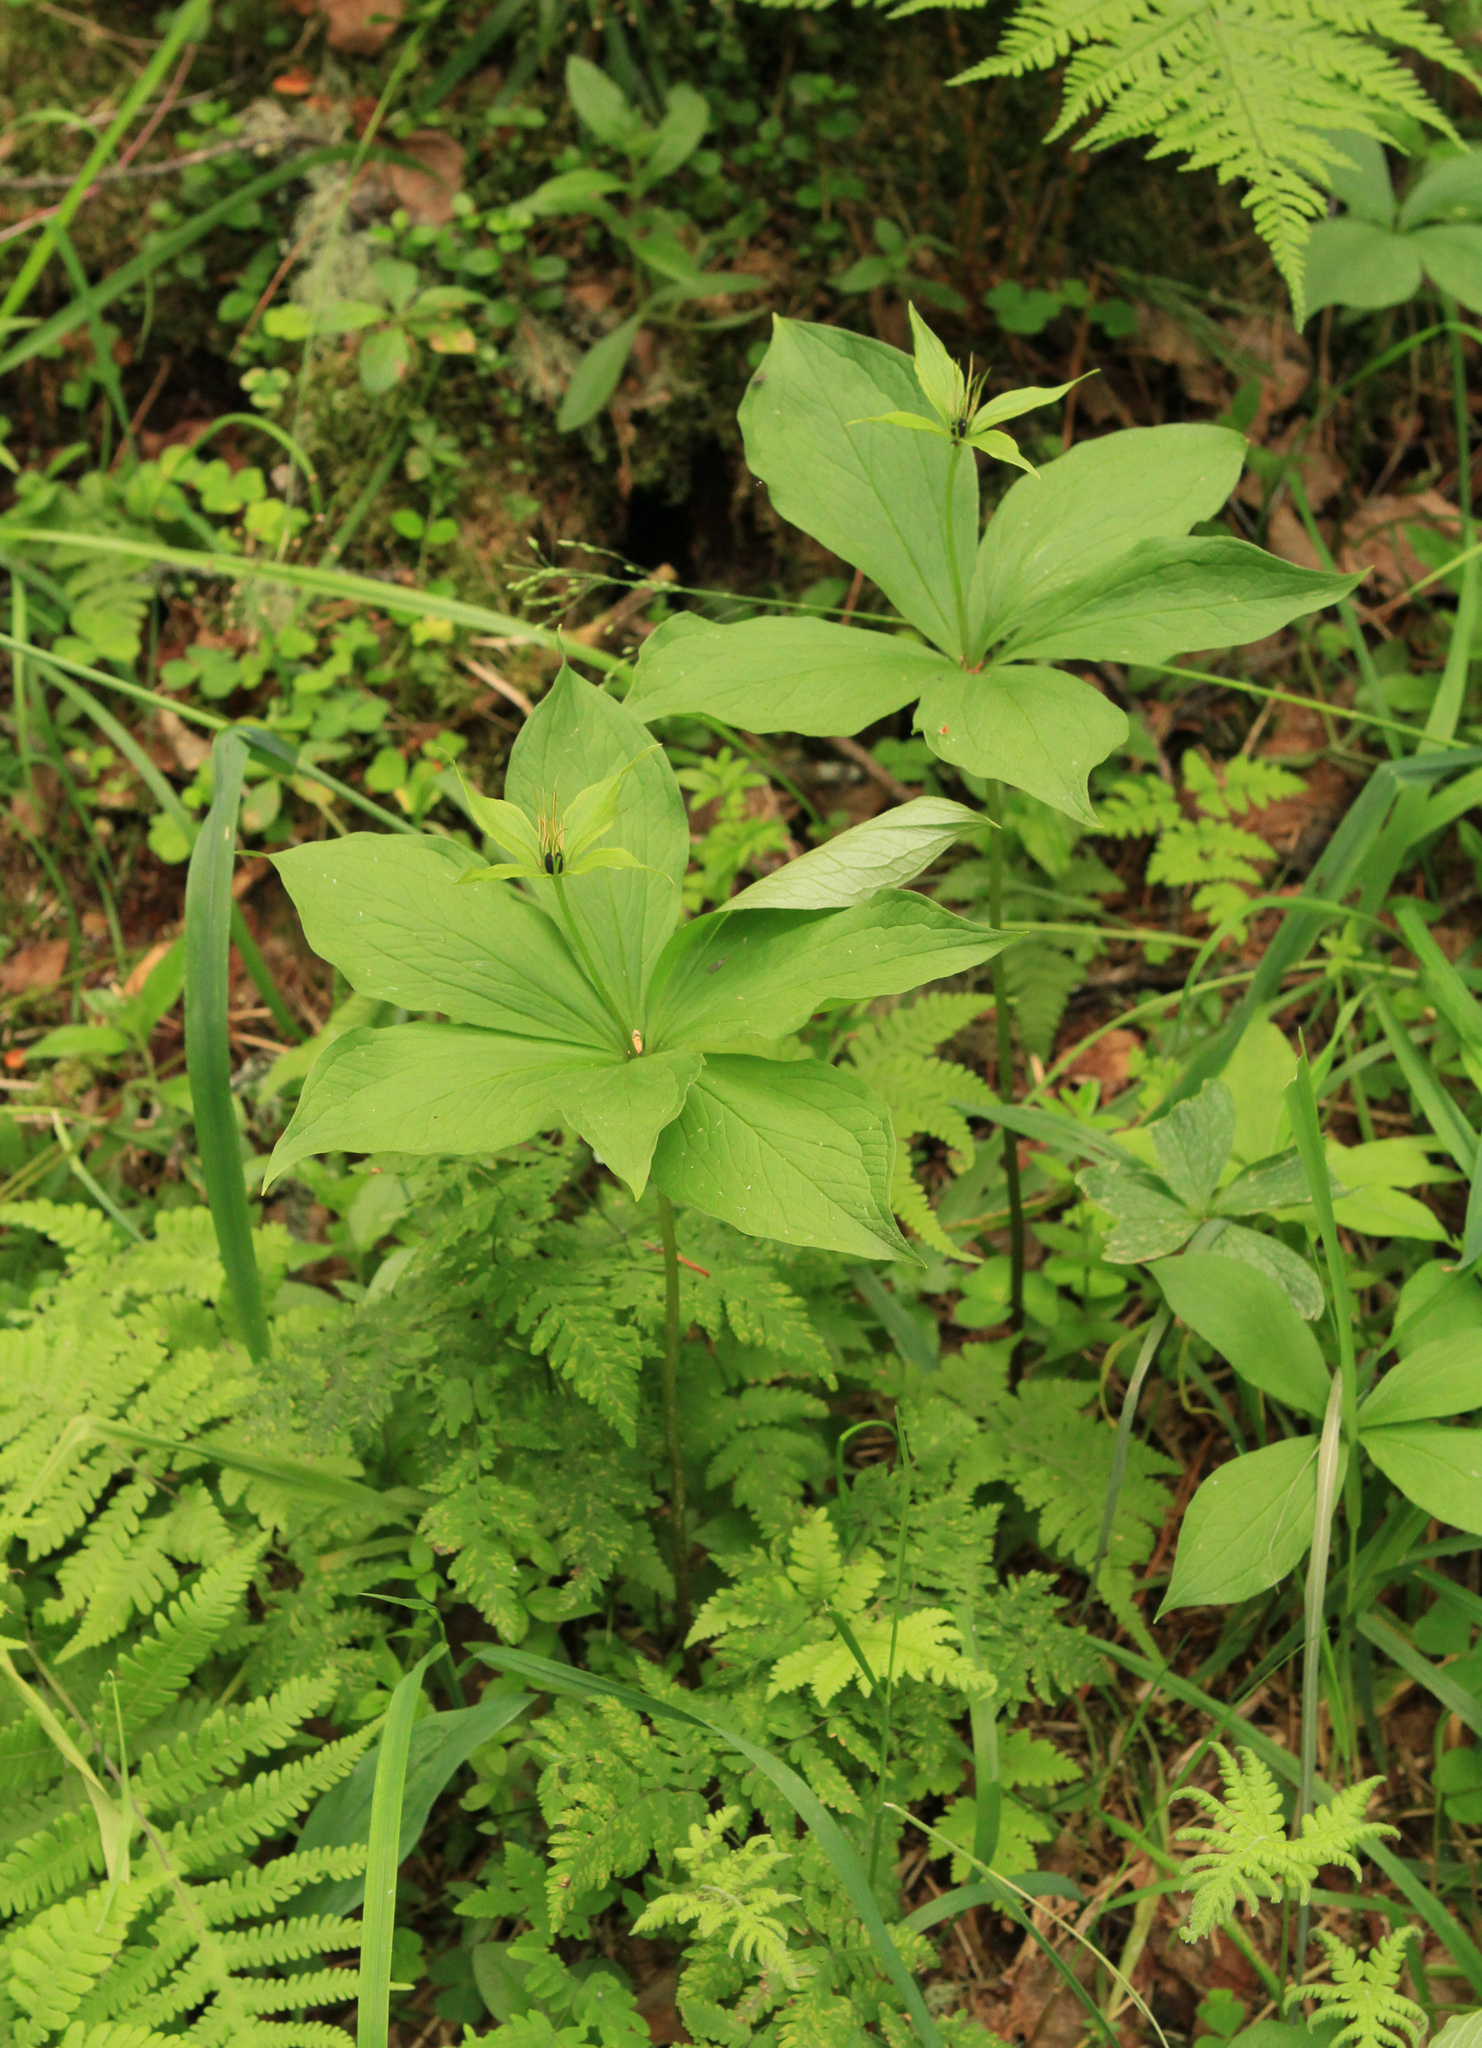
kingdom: Plantae
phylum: Tracheophyta
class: Liliopsida
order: Liliales
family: Melanthiaceae
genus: Paris
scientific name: Paris verticillata
